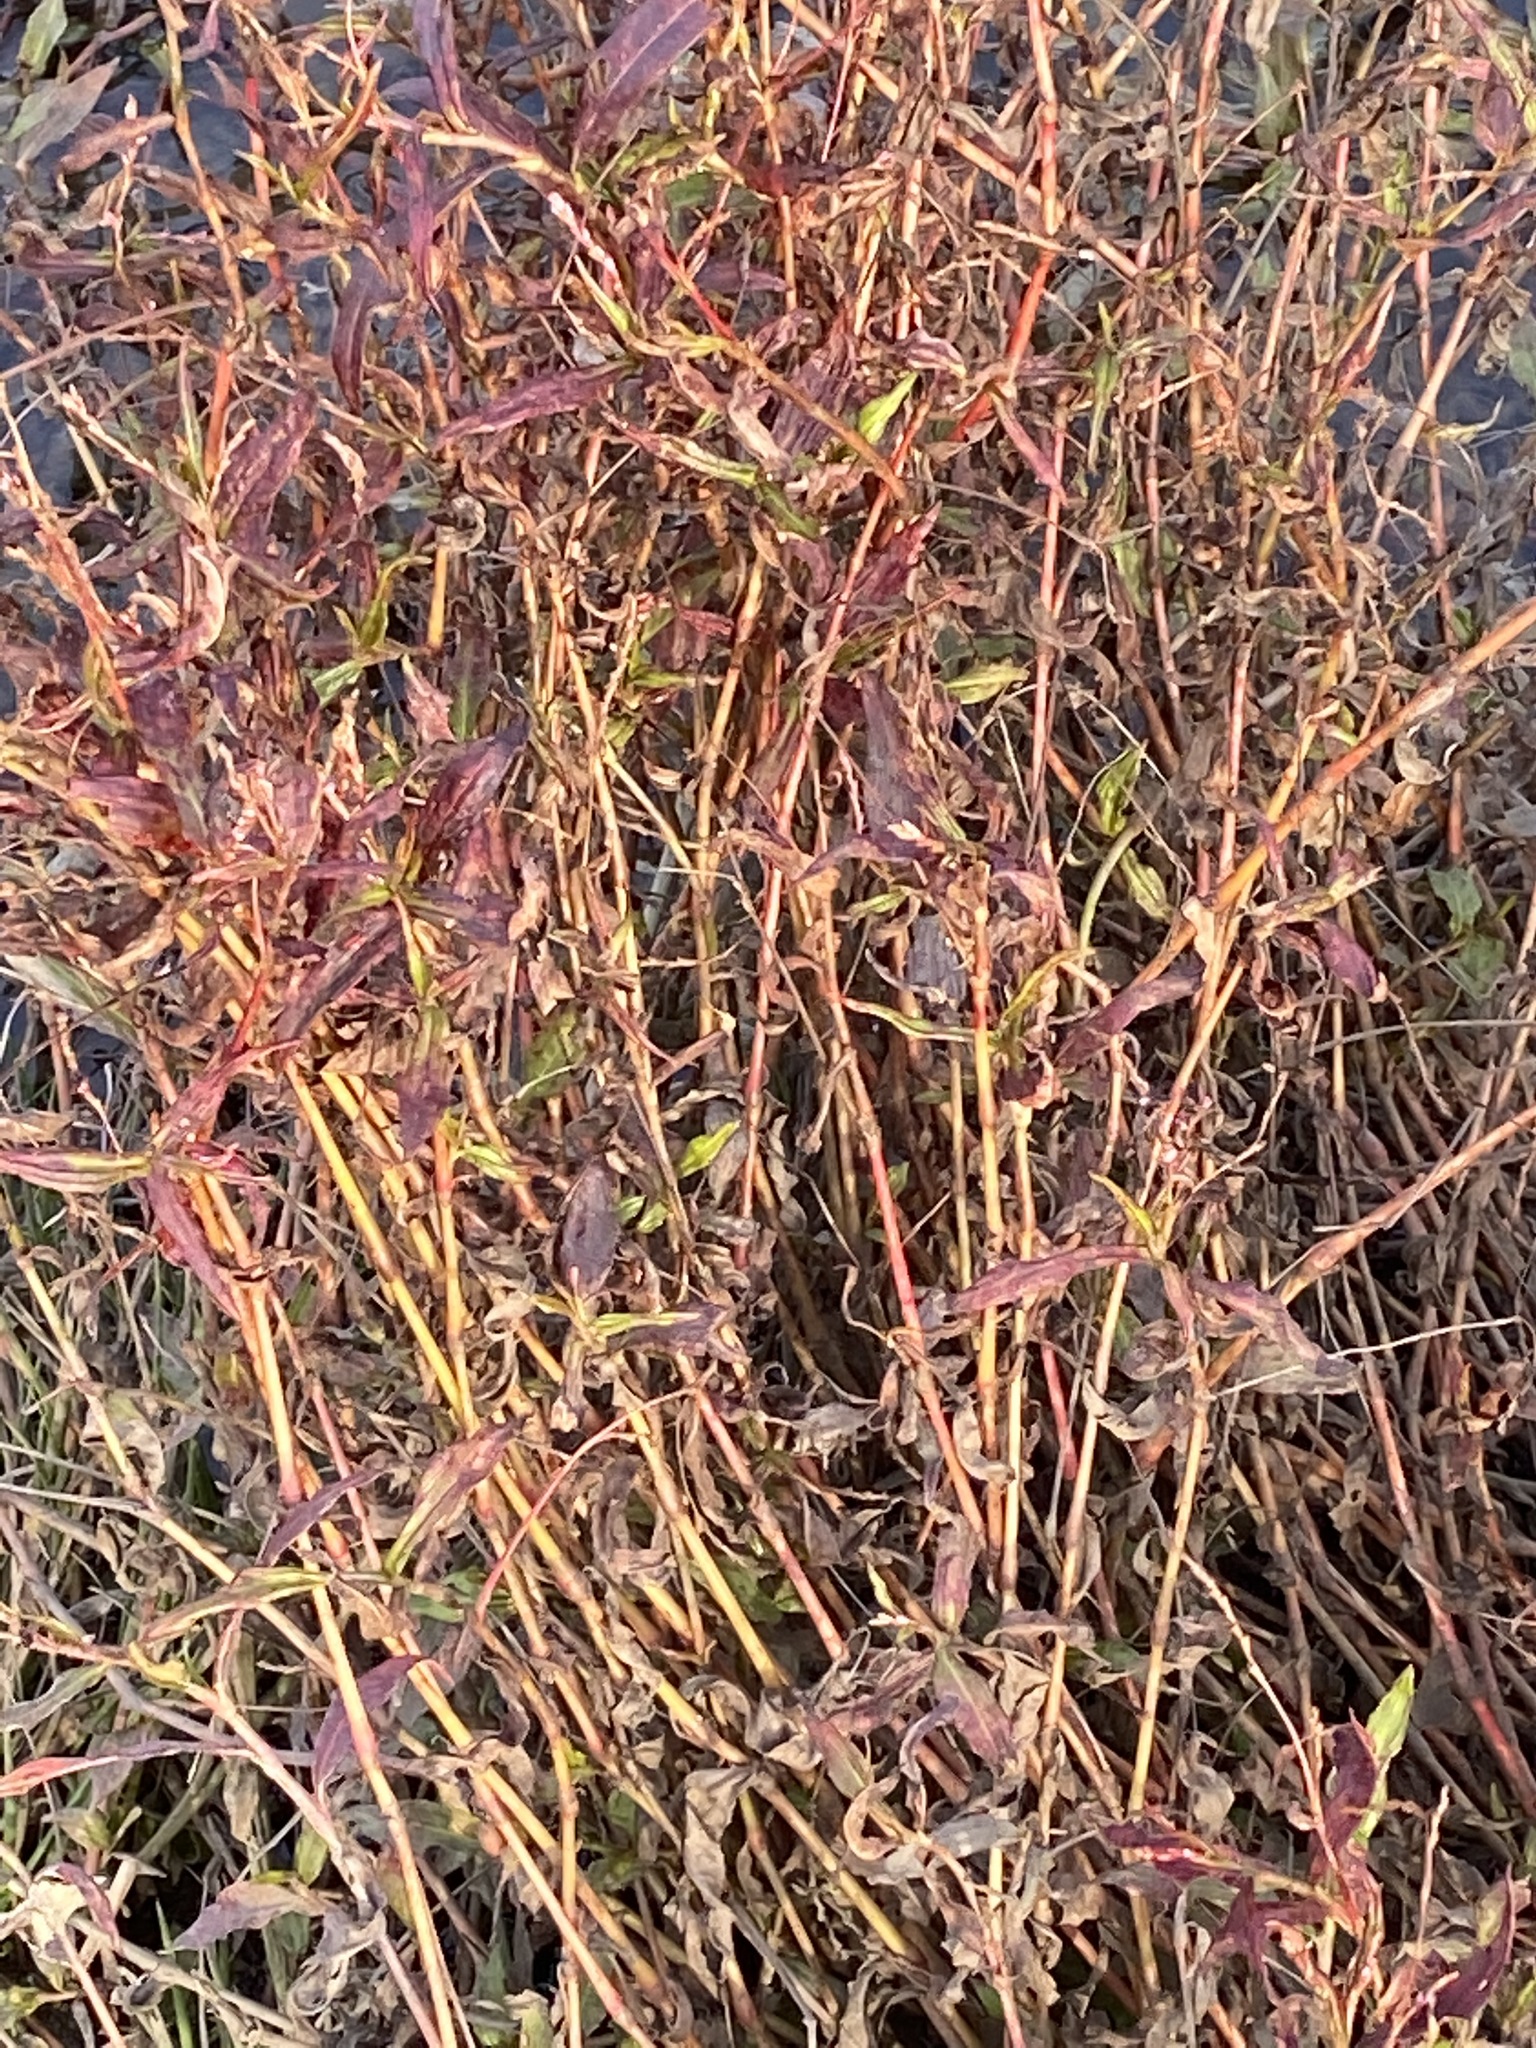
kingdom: Plantae
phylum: Tracheophyta
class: Magnoliopsida
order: Caryophyllales
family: Polygonaceae
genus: Persicaria
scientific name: Persicaria decipiens
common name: Willow-weed
